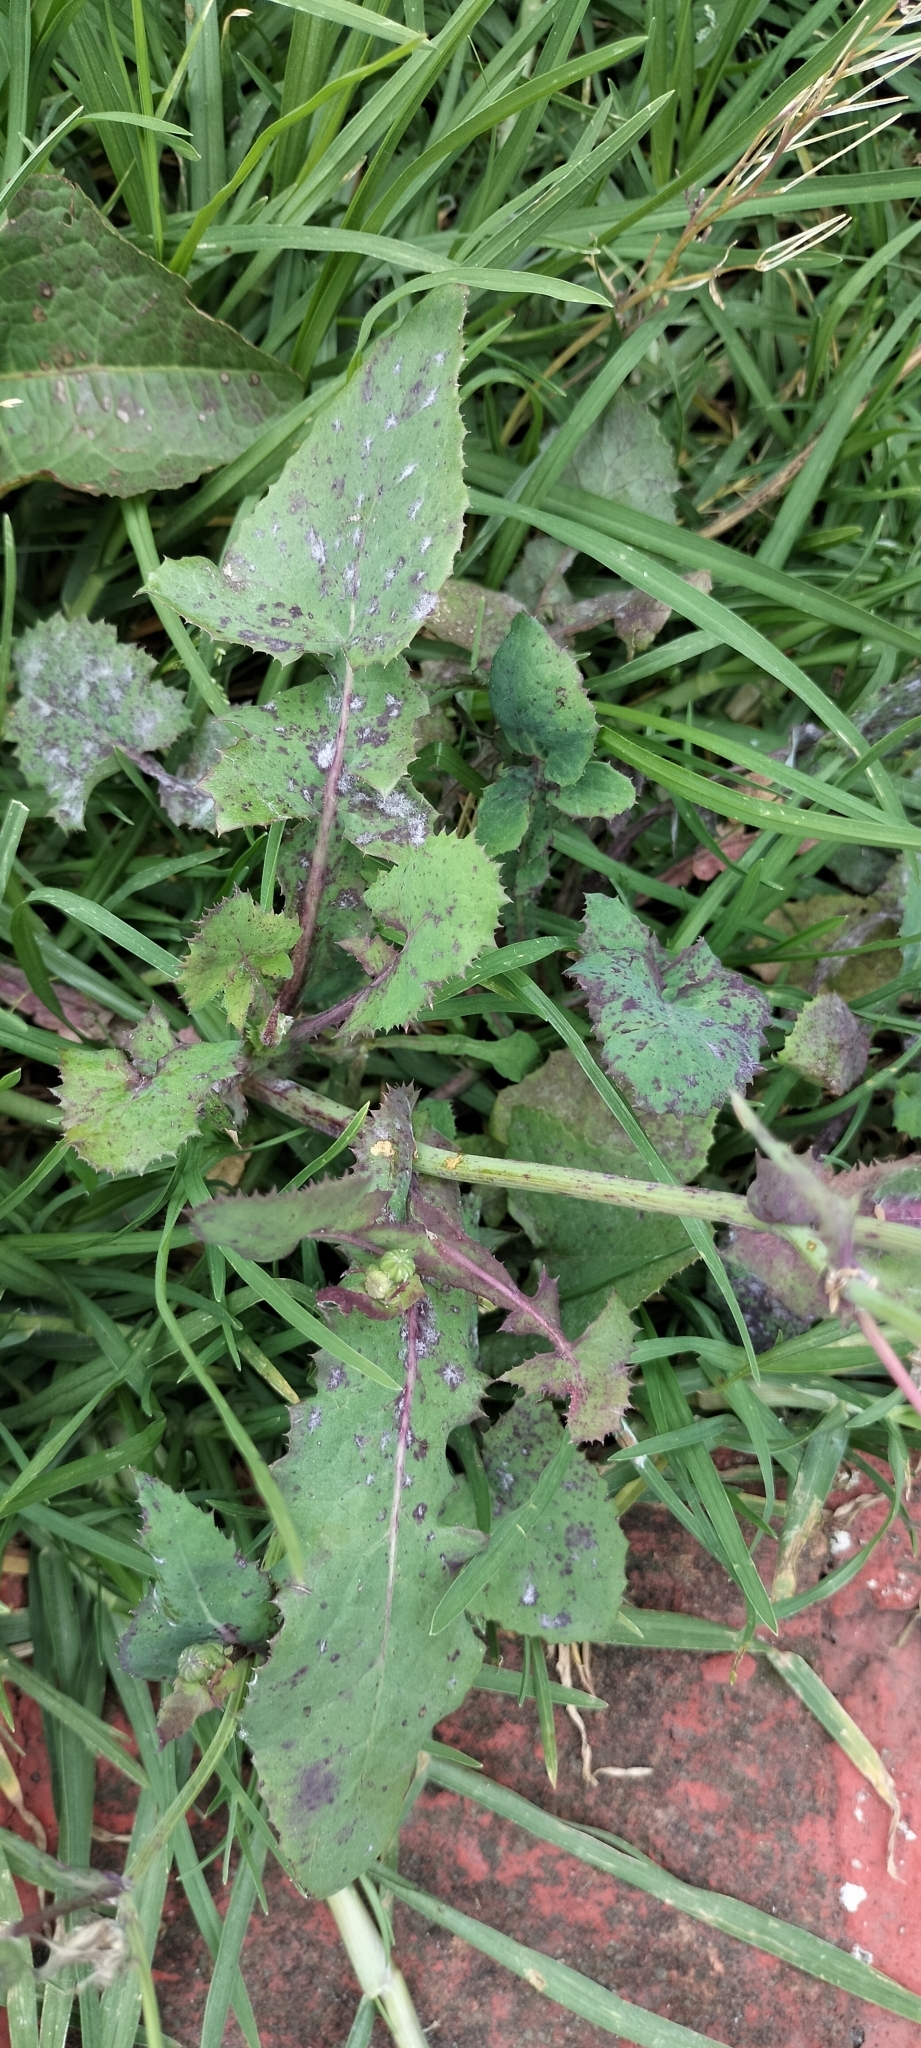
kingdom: Plantae
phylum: Tracheophyta
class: Magnoliopsida
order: Asterales
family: Asteraceae
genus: Sonchus
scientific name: Sonchus oleraceus
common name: Common sowthistle
